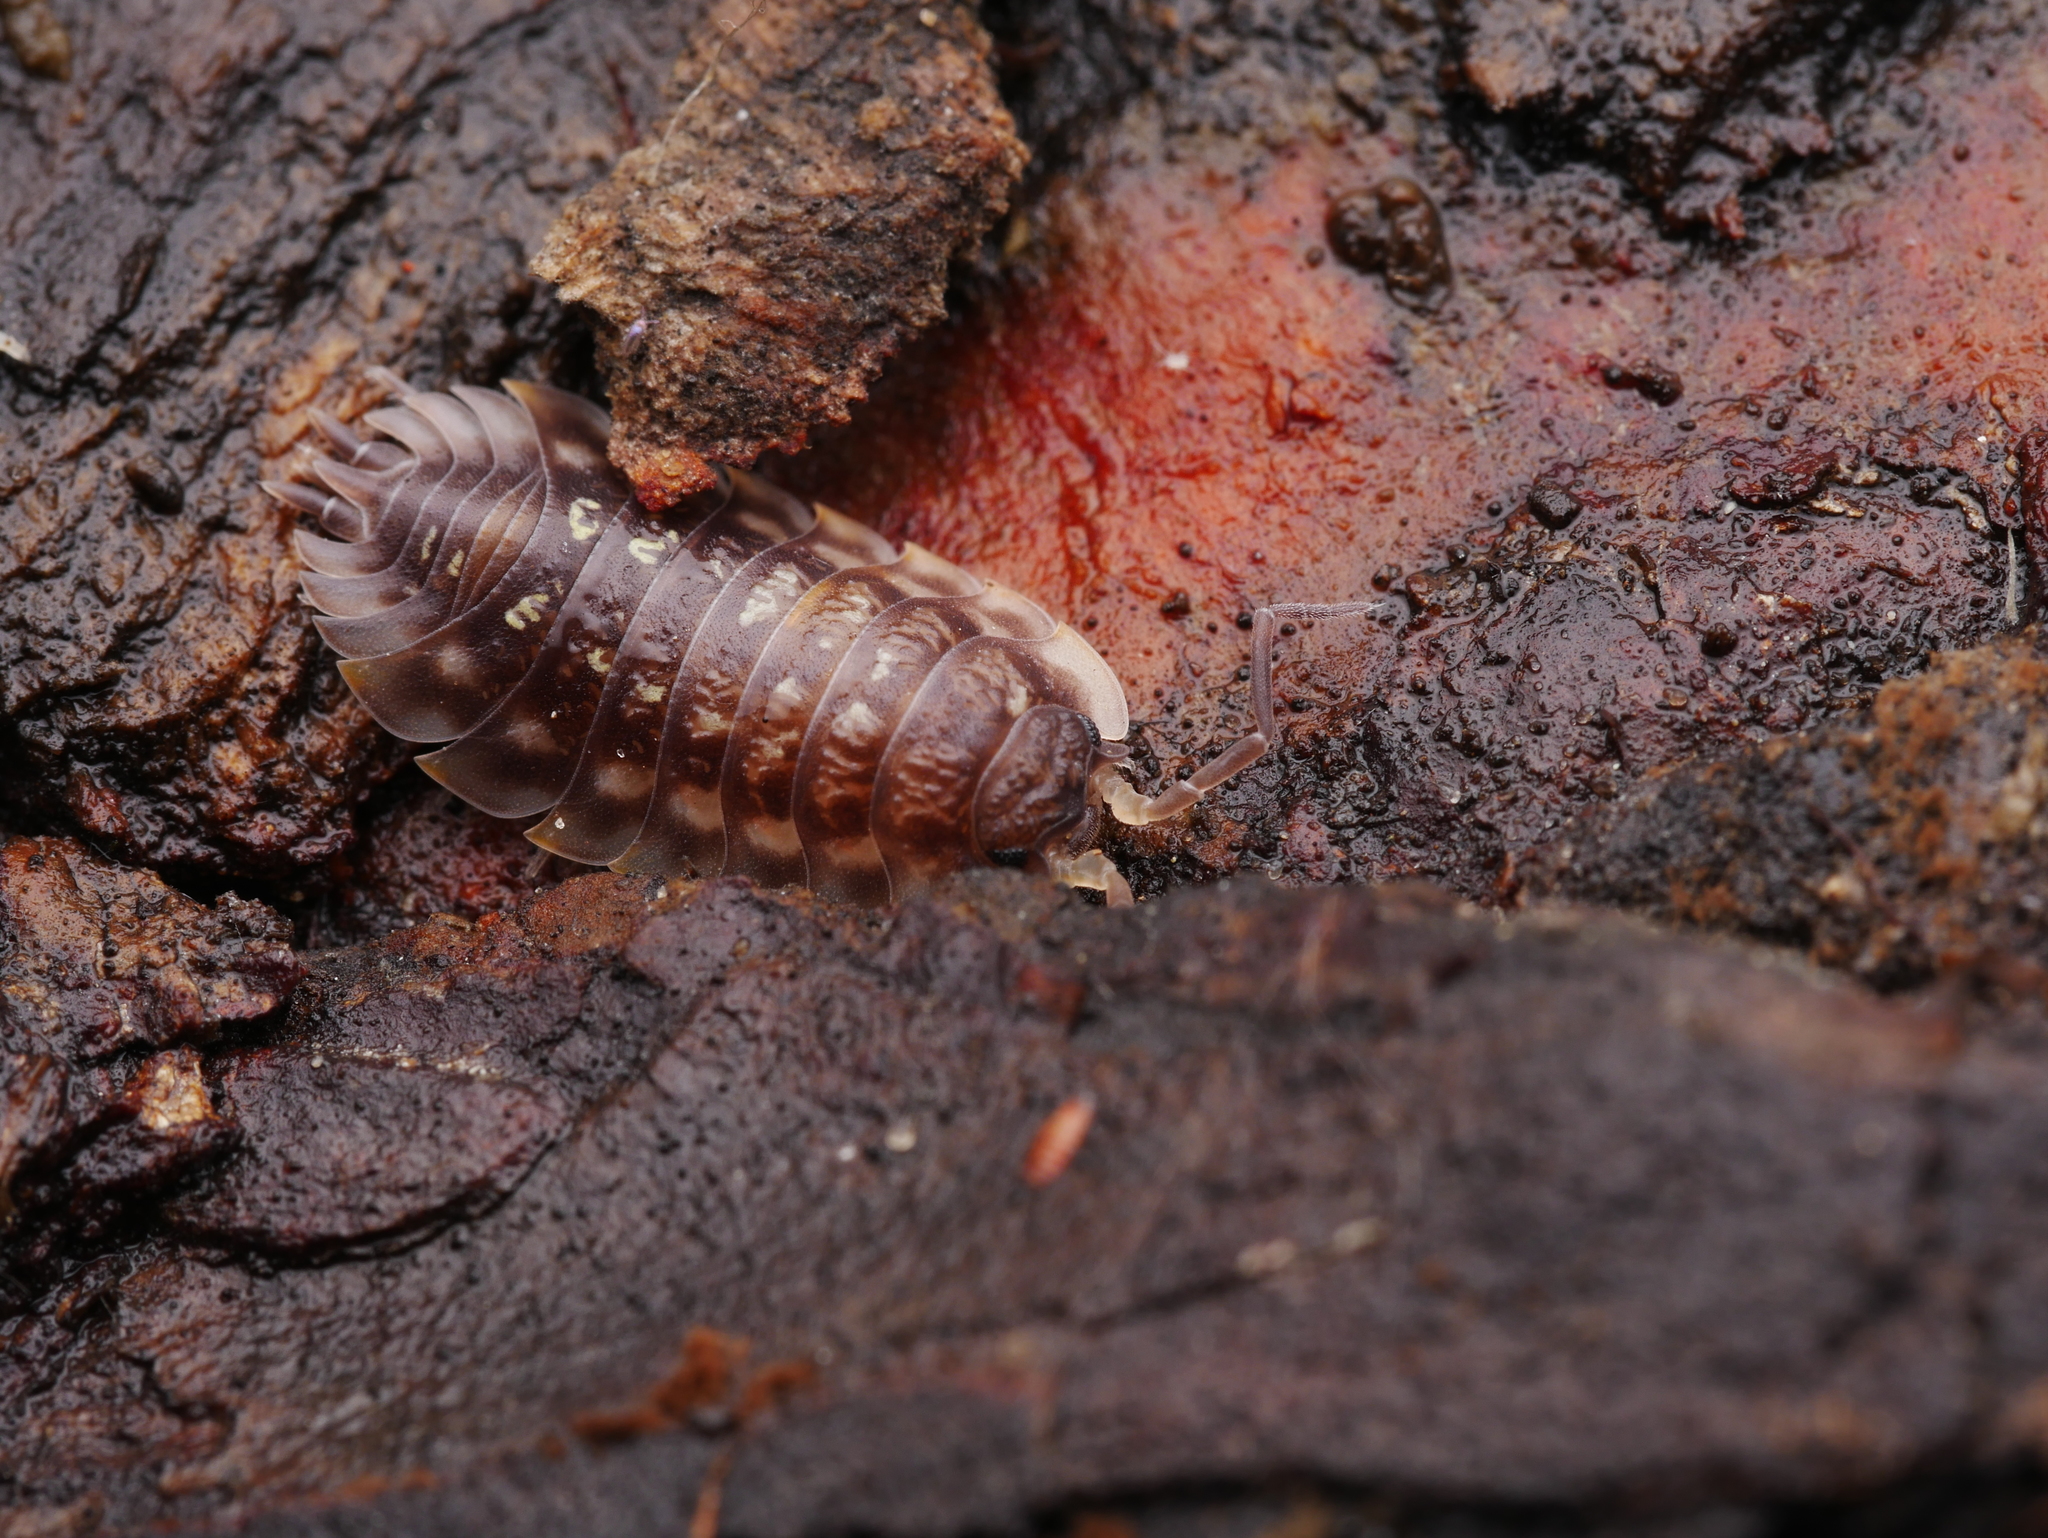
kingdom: Animalia
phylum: Arthropoda
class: Malacostraca
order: Isopoda
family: Oniscidae
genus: Oniscus
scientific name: Oniscus asellus
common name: Common shiny woodlouse
